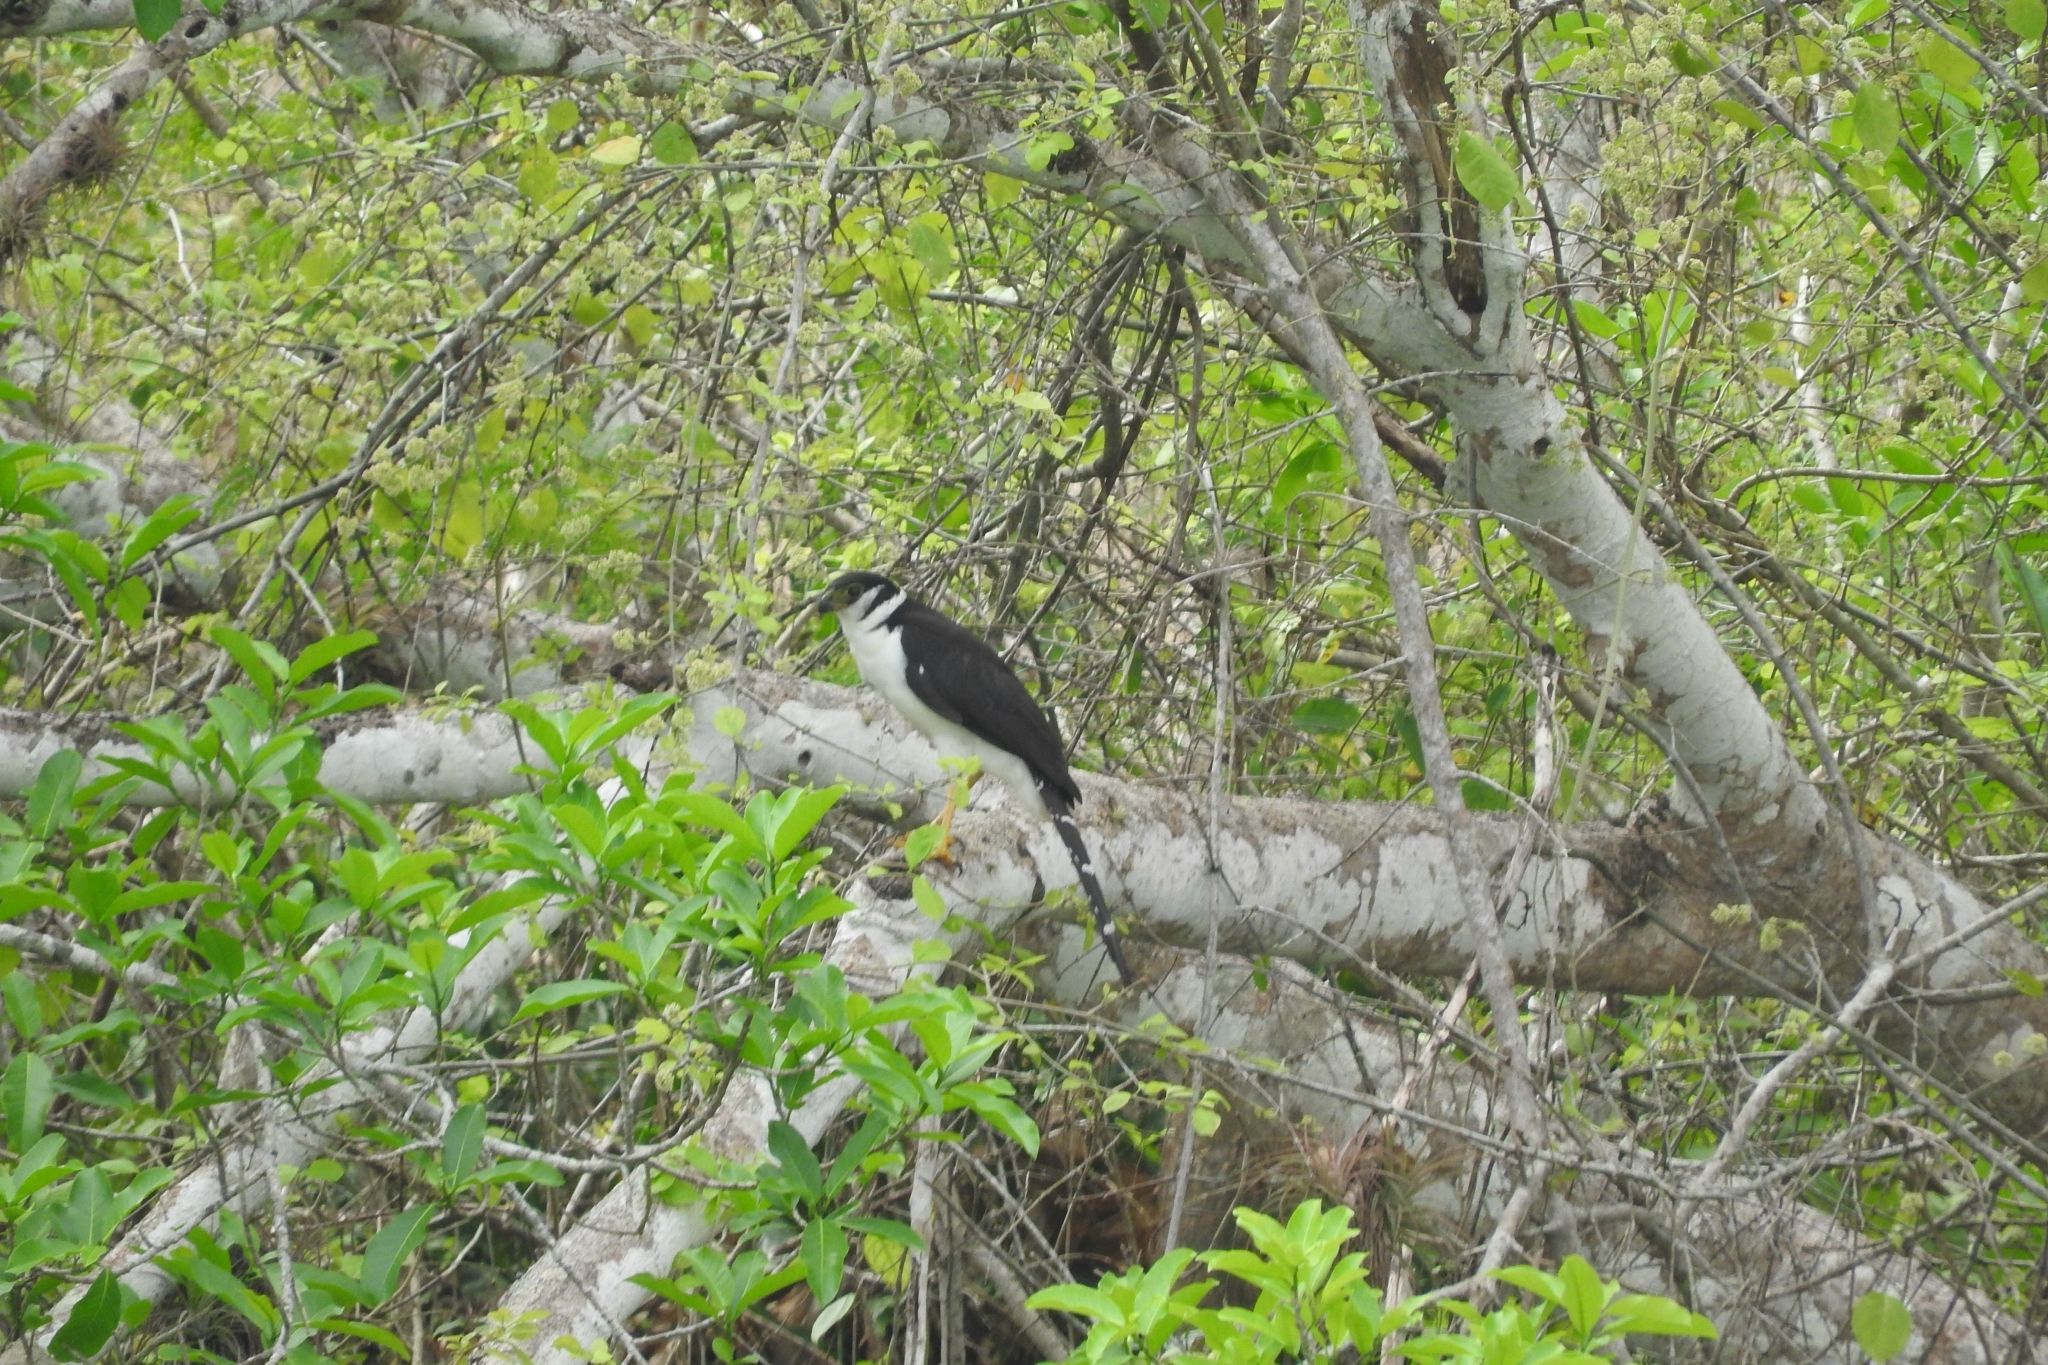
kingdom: Animalia
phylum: Chordata
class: Aves
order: Falconiformes
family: Falconidae
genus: Micrastur
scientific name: Micrastur semitorquatus
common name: Collared forest-falcon
